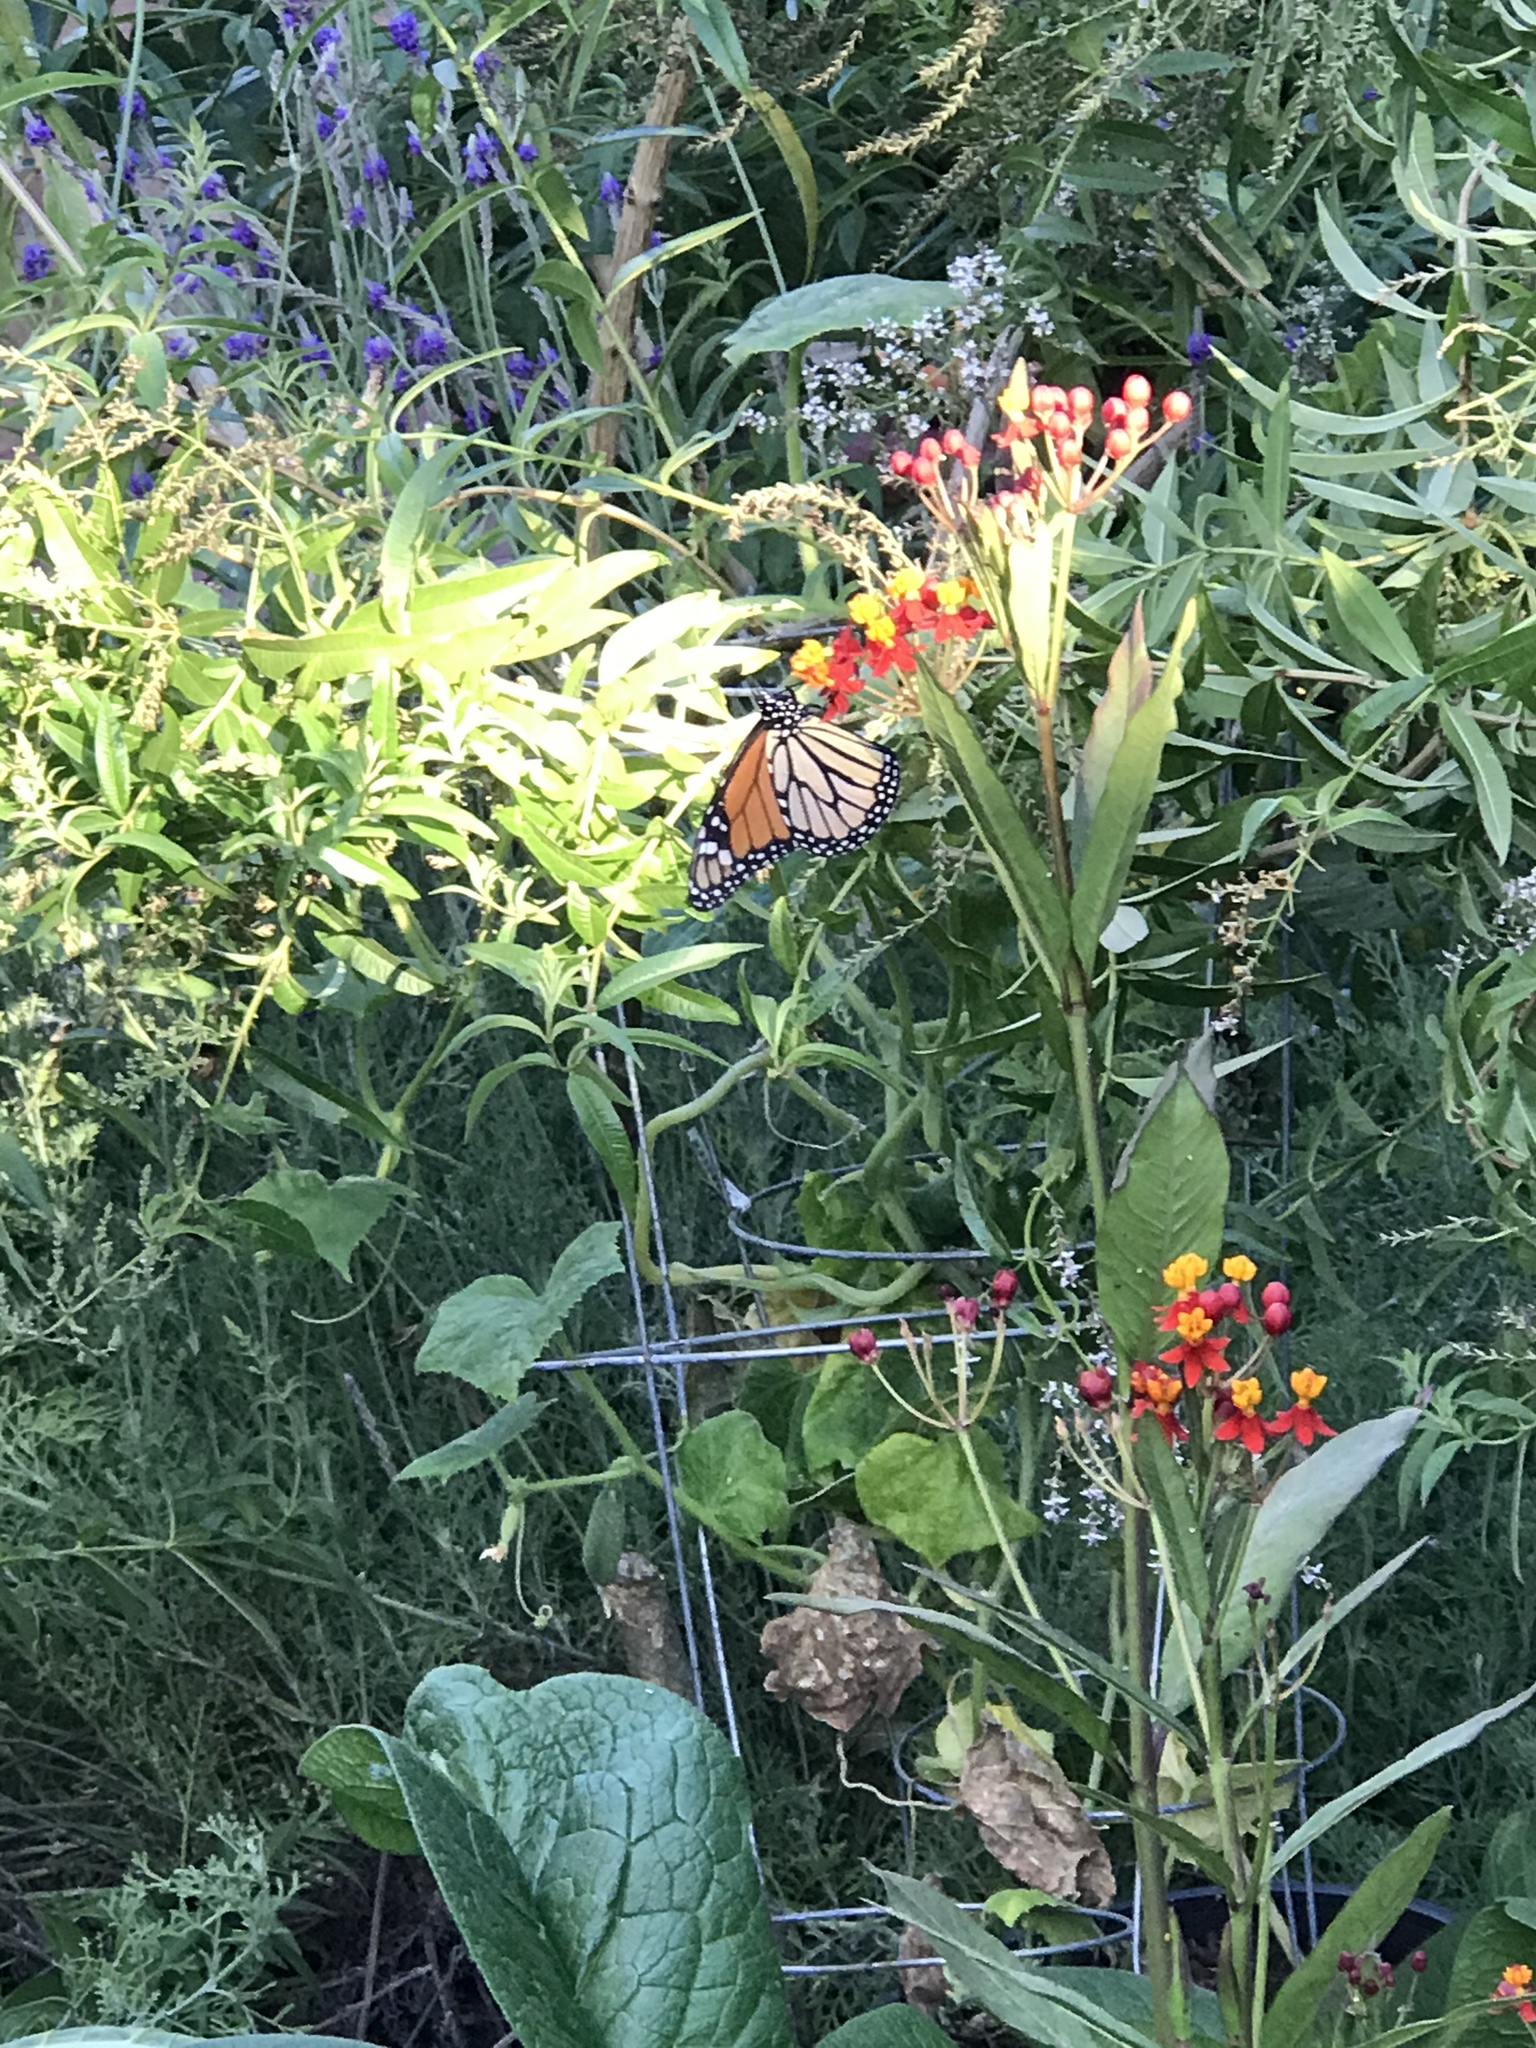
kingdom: Animalia
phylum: Arthropoda
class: Insecta
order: Lepidoptera
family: Nymphalidae
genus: Danaus
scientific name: Danaus plexippus
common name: Monarch
